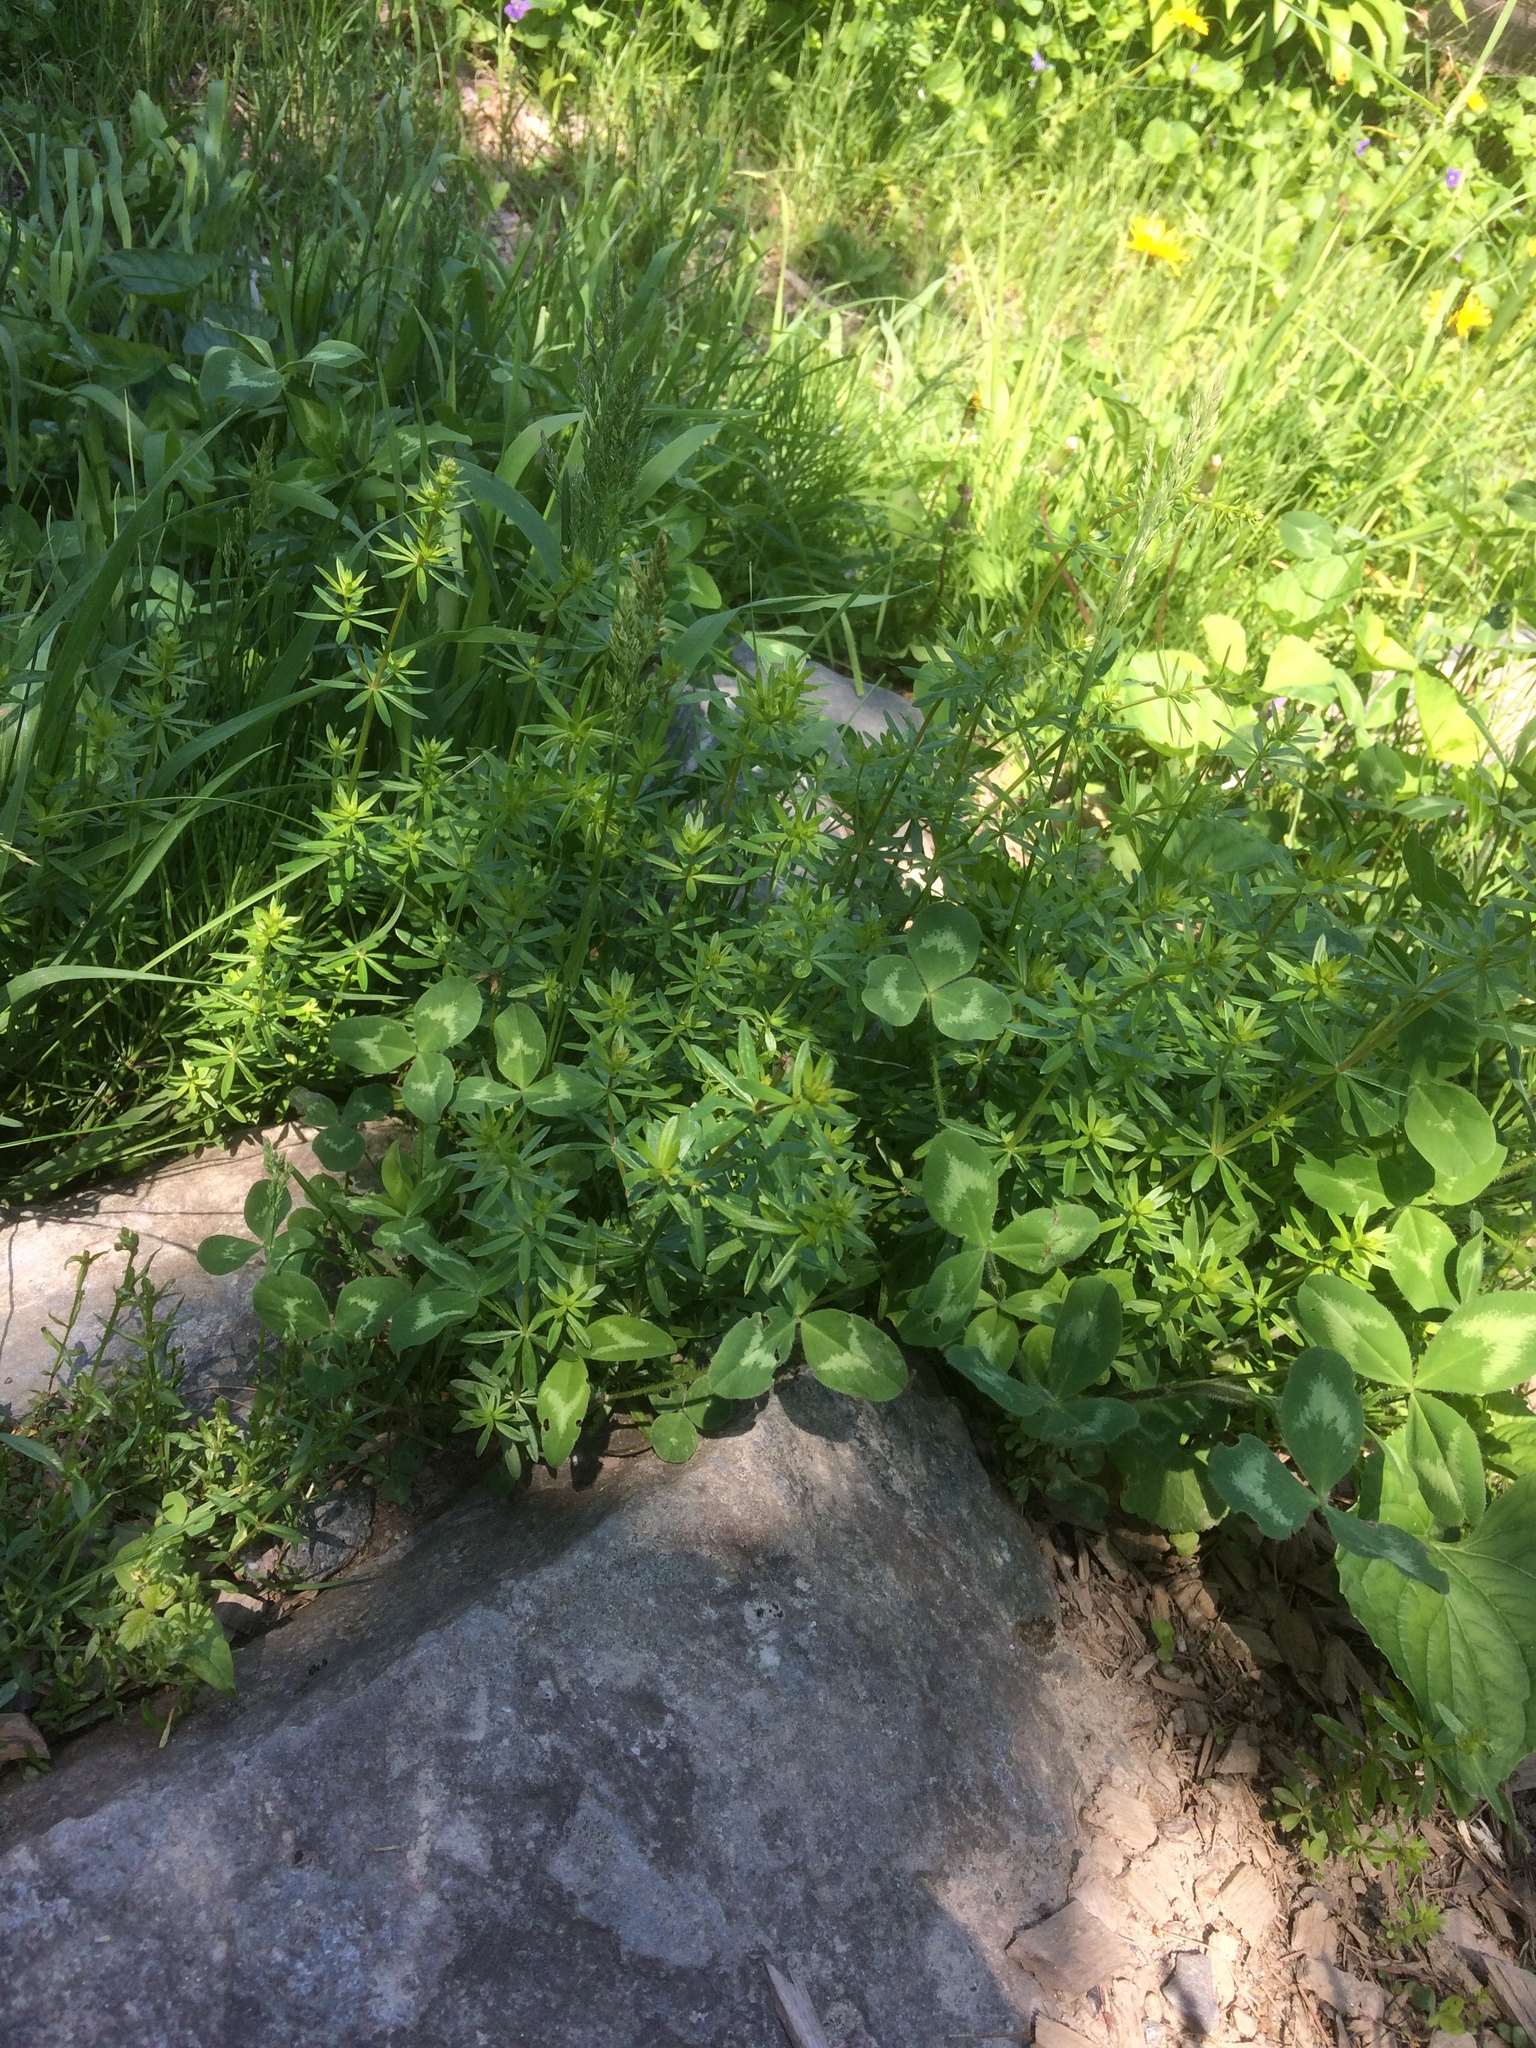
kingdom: Plantae
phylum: Tracheophyta
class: Magnoliopsida
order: Fabales
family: Fabaceae
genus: Trifolium
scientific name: Trifolium pratense
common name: Red clover
